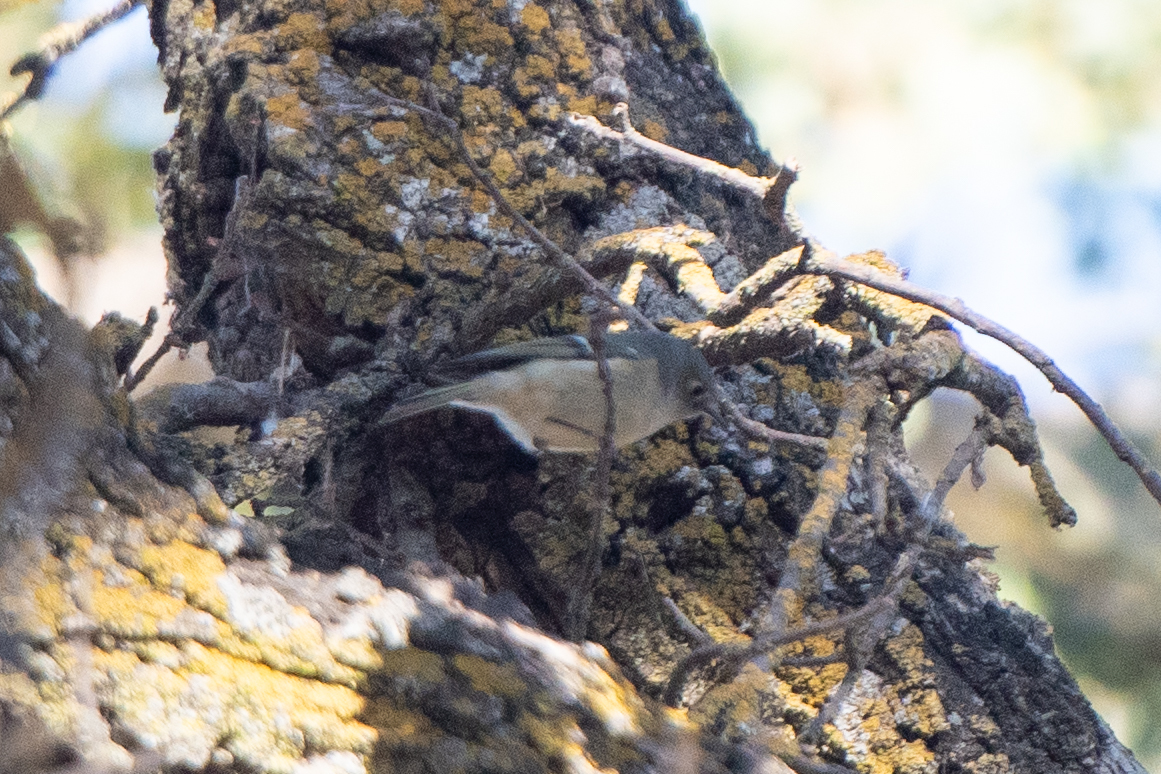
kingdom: Animalia
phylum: Chordata
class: Aves
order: Passeriformes
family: Regulidae
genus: Regulus
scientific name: Regulus calendula
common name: Ruby-crowned kinglet
